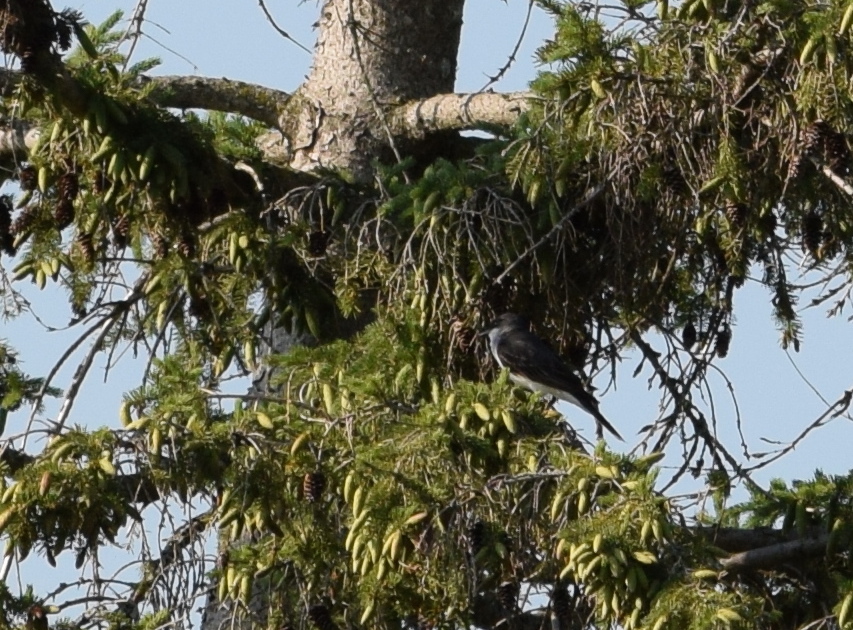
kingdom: Animalia
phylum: Chordata
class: Aves
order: Passeriformes
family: Tyrannidae
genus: Tyrannus
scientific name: Tyrannus tyrannus
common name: Eastern kingbird
